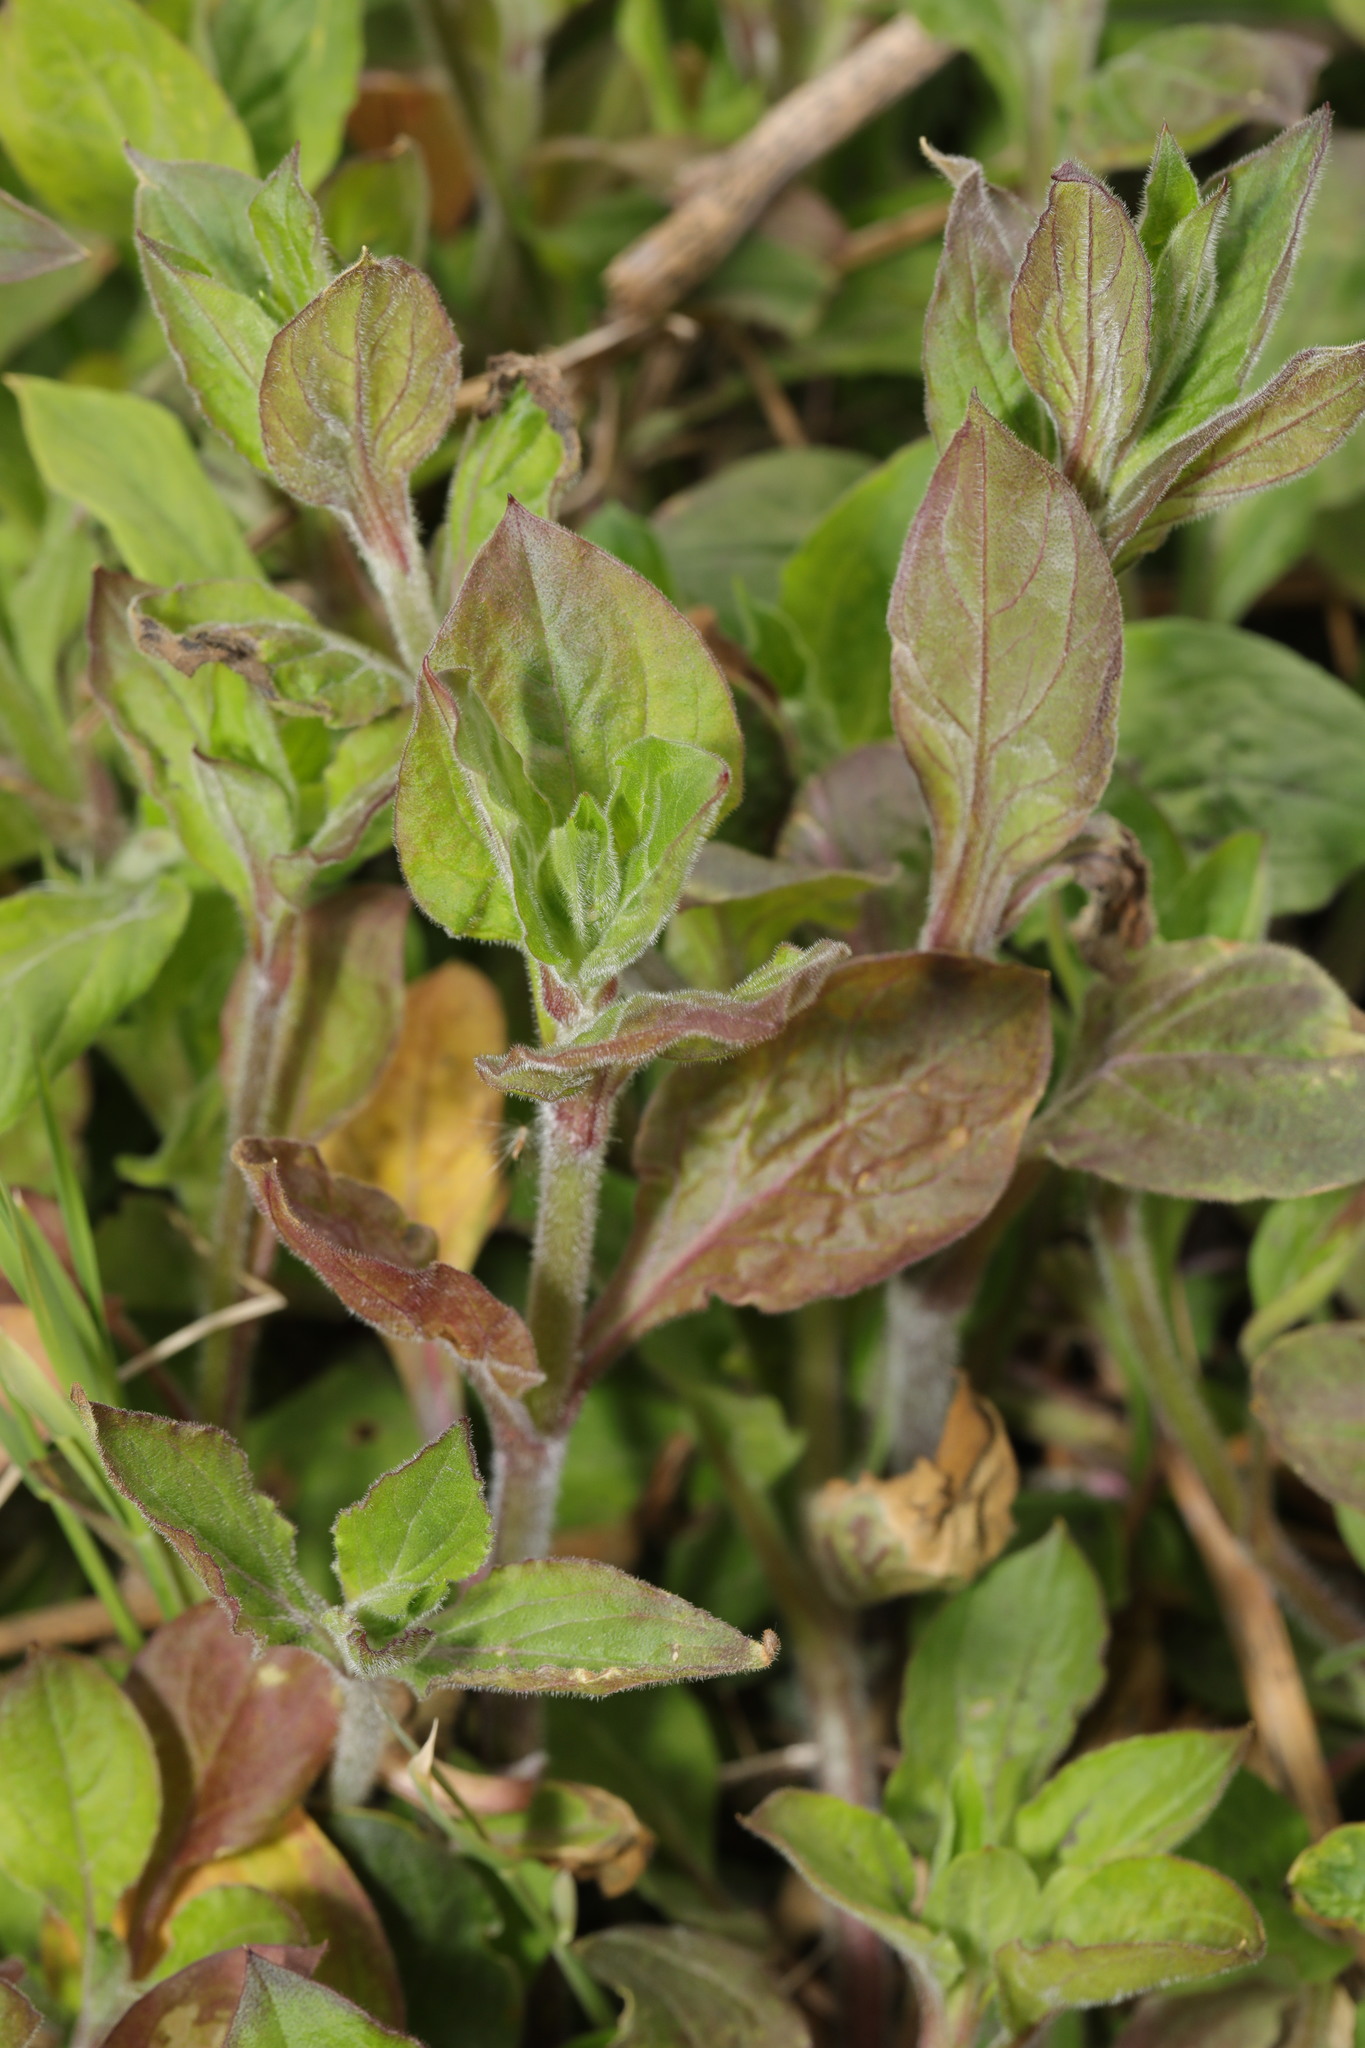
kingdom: Plantae
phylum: Tracheophyta
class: Magnoliopsida
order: Caryophyllales
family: Caryophyllaceae
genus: Silene
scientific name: Silene dioica
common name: Red campion
